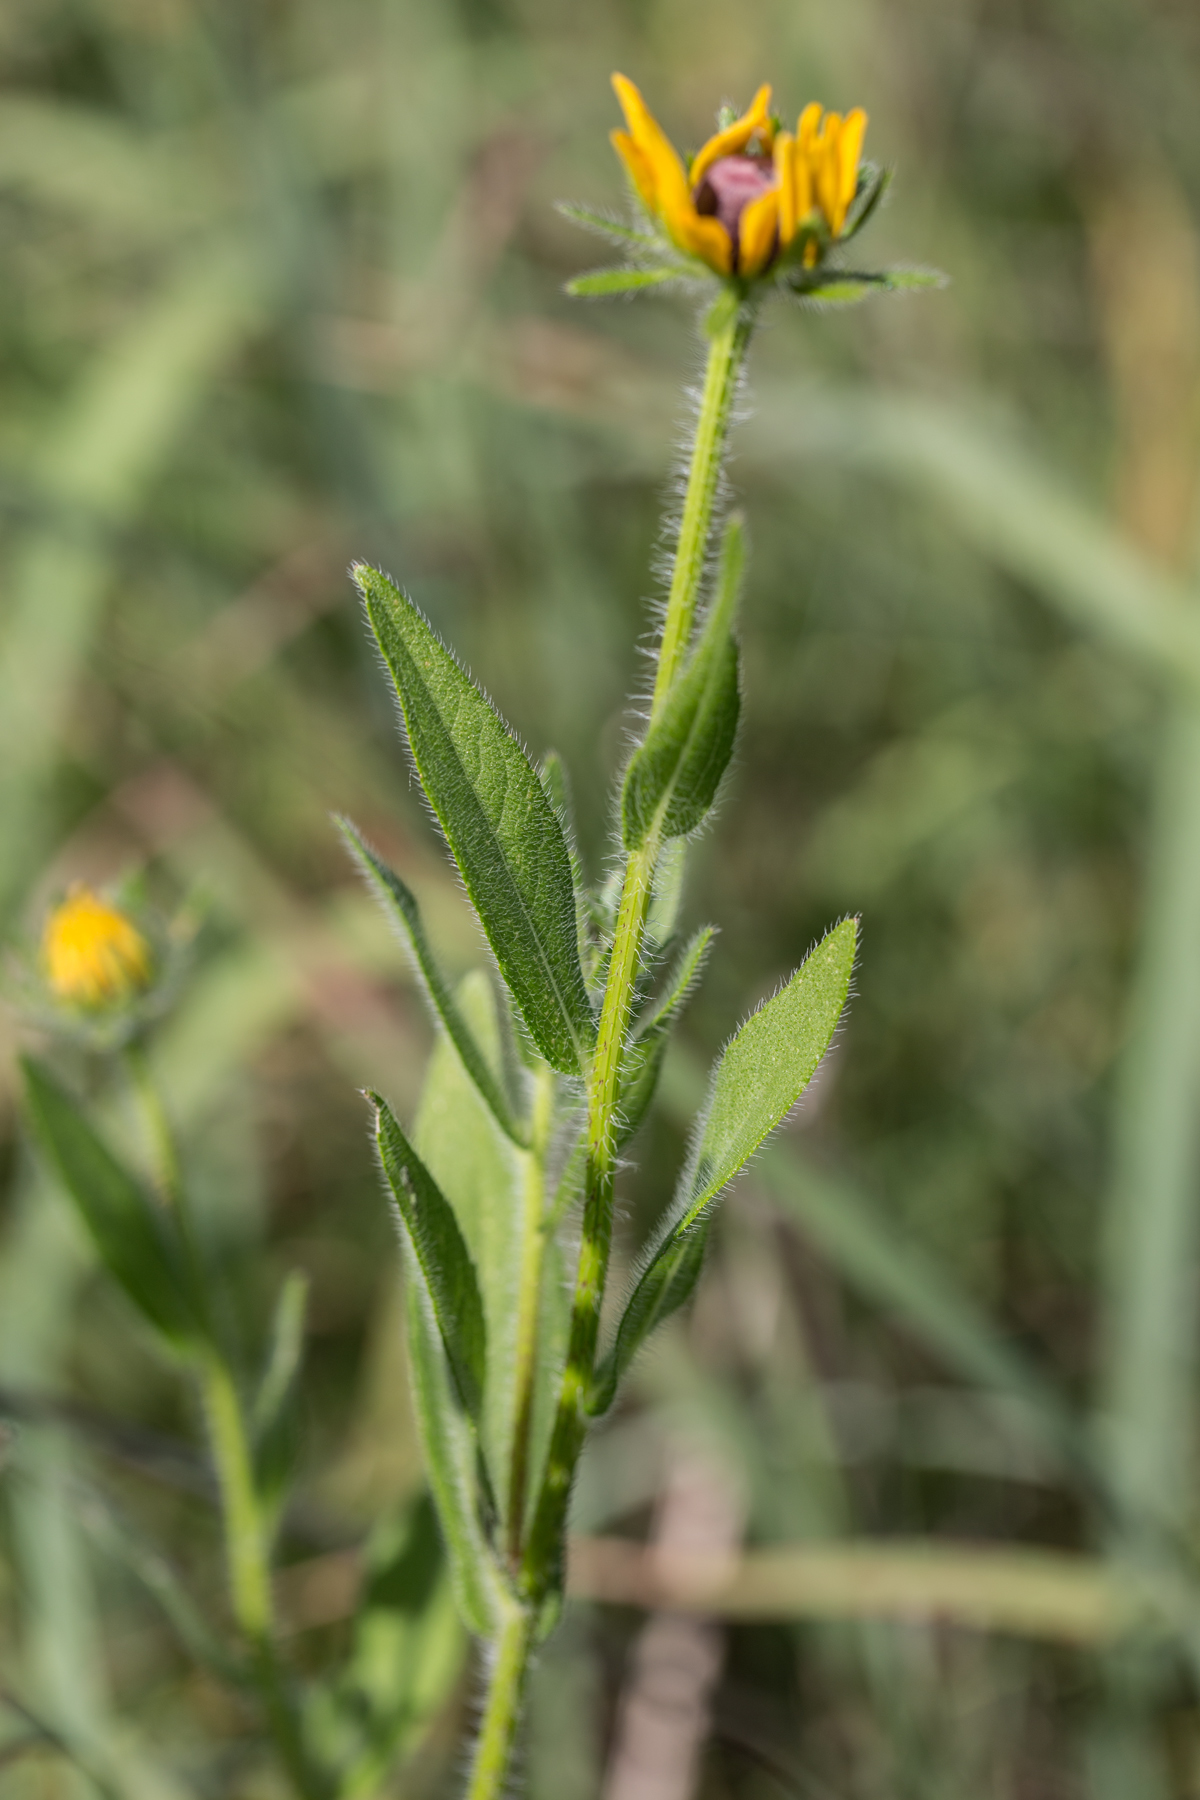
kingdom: Plantae
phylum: Tracheophyta
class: Magnoliopsida
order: Asterales
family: Asteraceae
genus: Rudbeckia
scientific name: Rudbeckia hirta
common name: Black-eyed-susan
